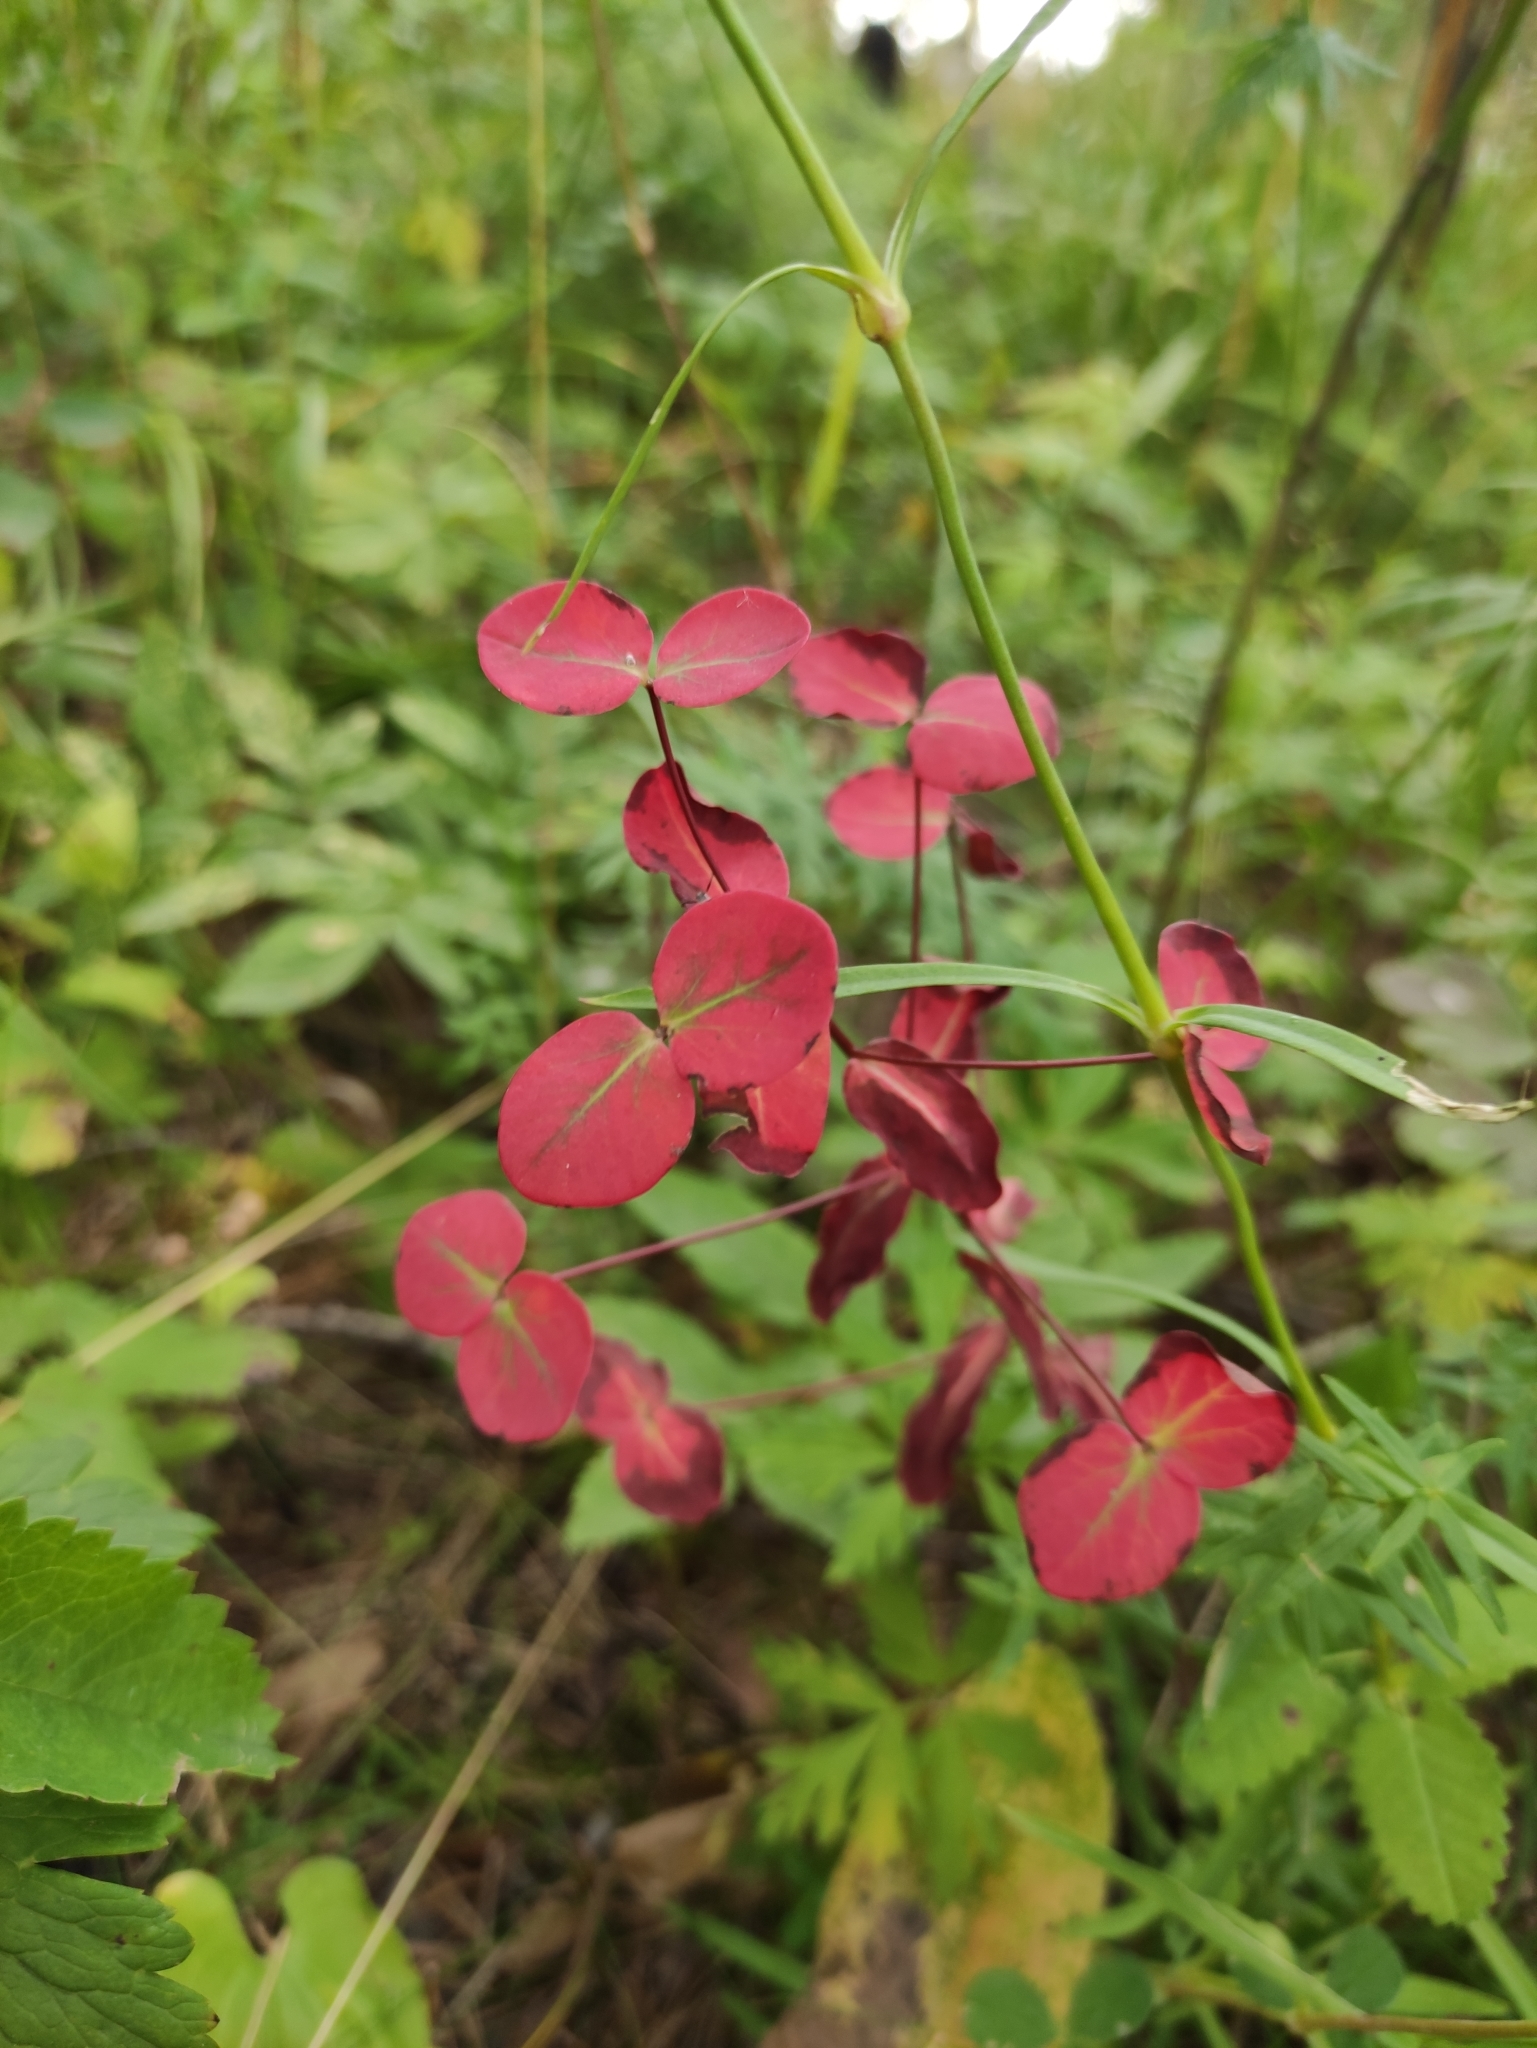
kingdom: Plantae
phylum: Tracheophyta
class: Magnoliopsida
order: Malpighiales
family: Euphorbiaceae
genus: Euphorbia
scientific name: Euphorbia jenisseiensis
